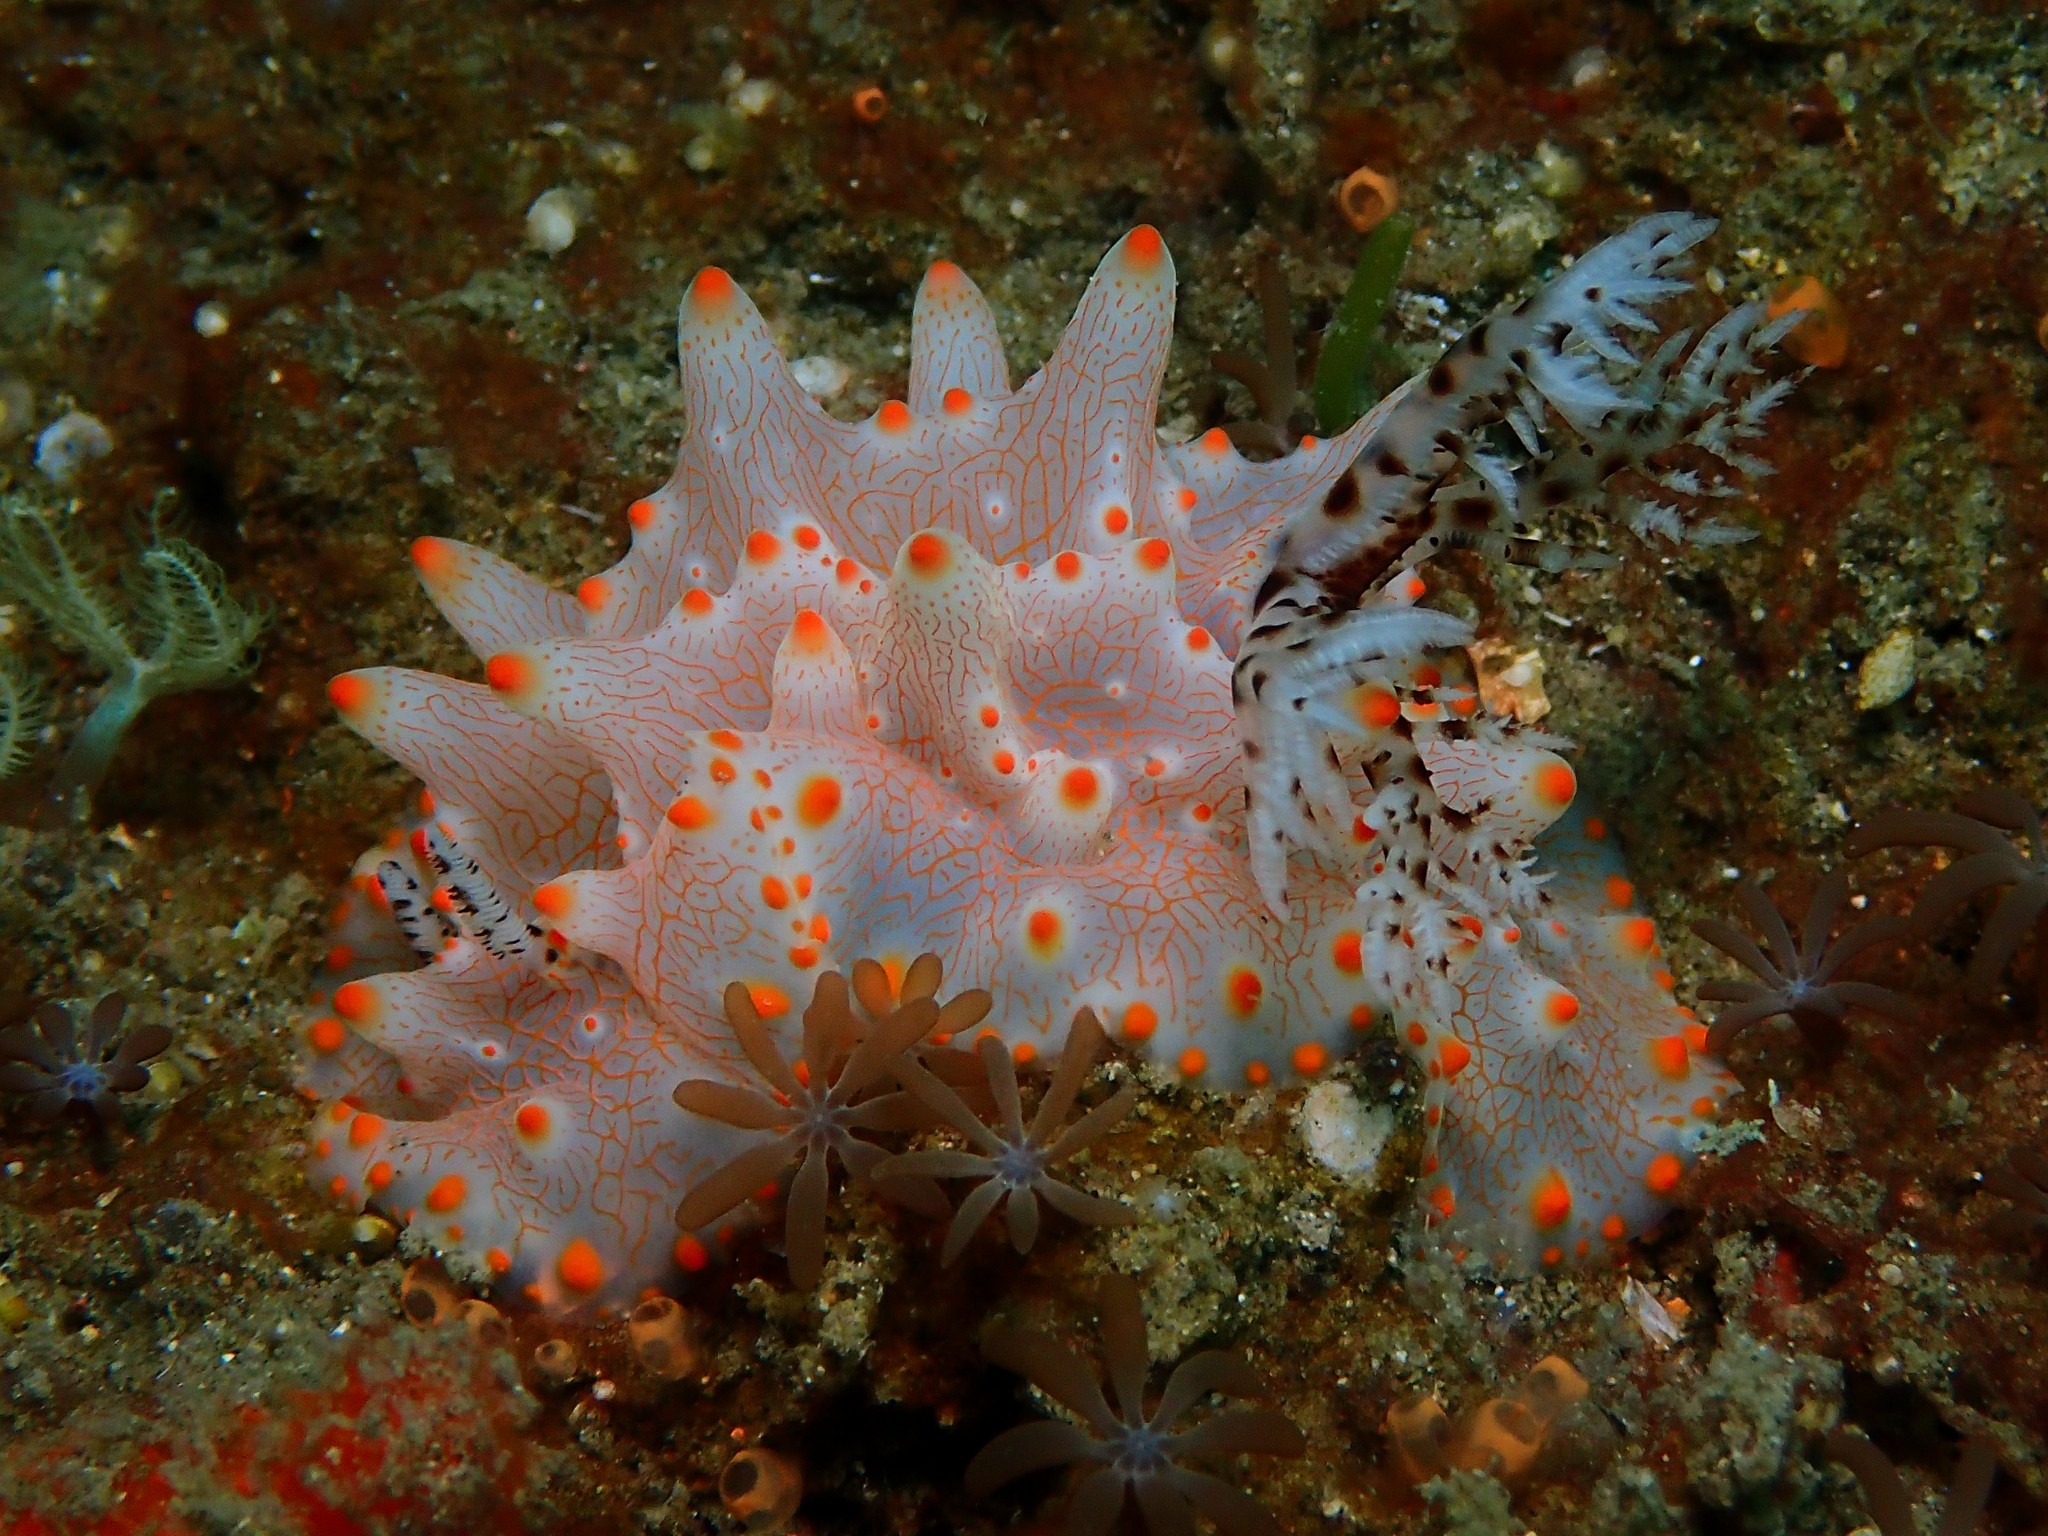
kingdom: Animalia
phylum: Mollusca
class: Gastropoda
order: Nudibranchia
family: Discodorididae
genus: Halgerda
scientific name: Halgerda batangas
